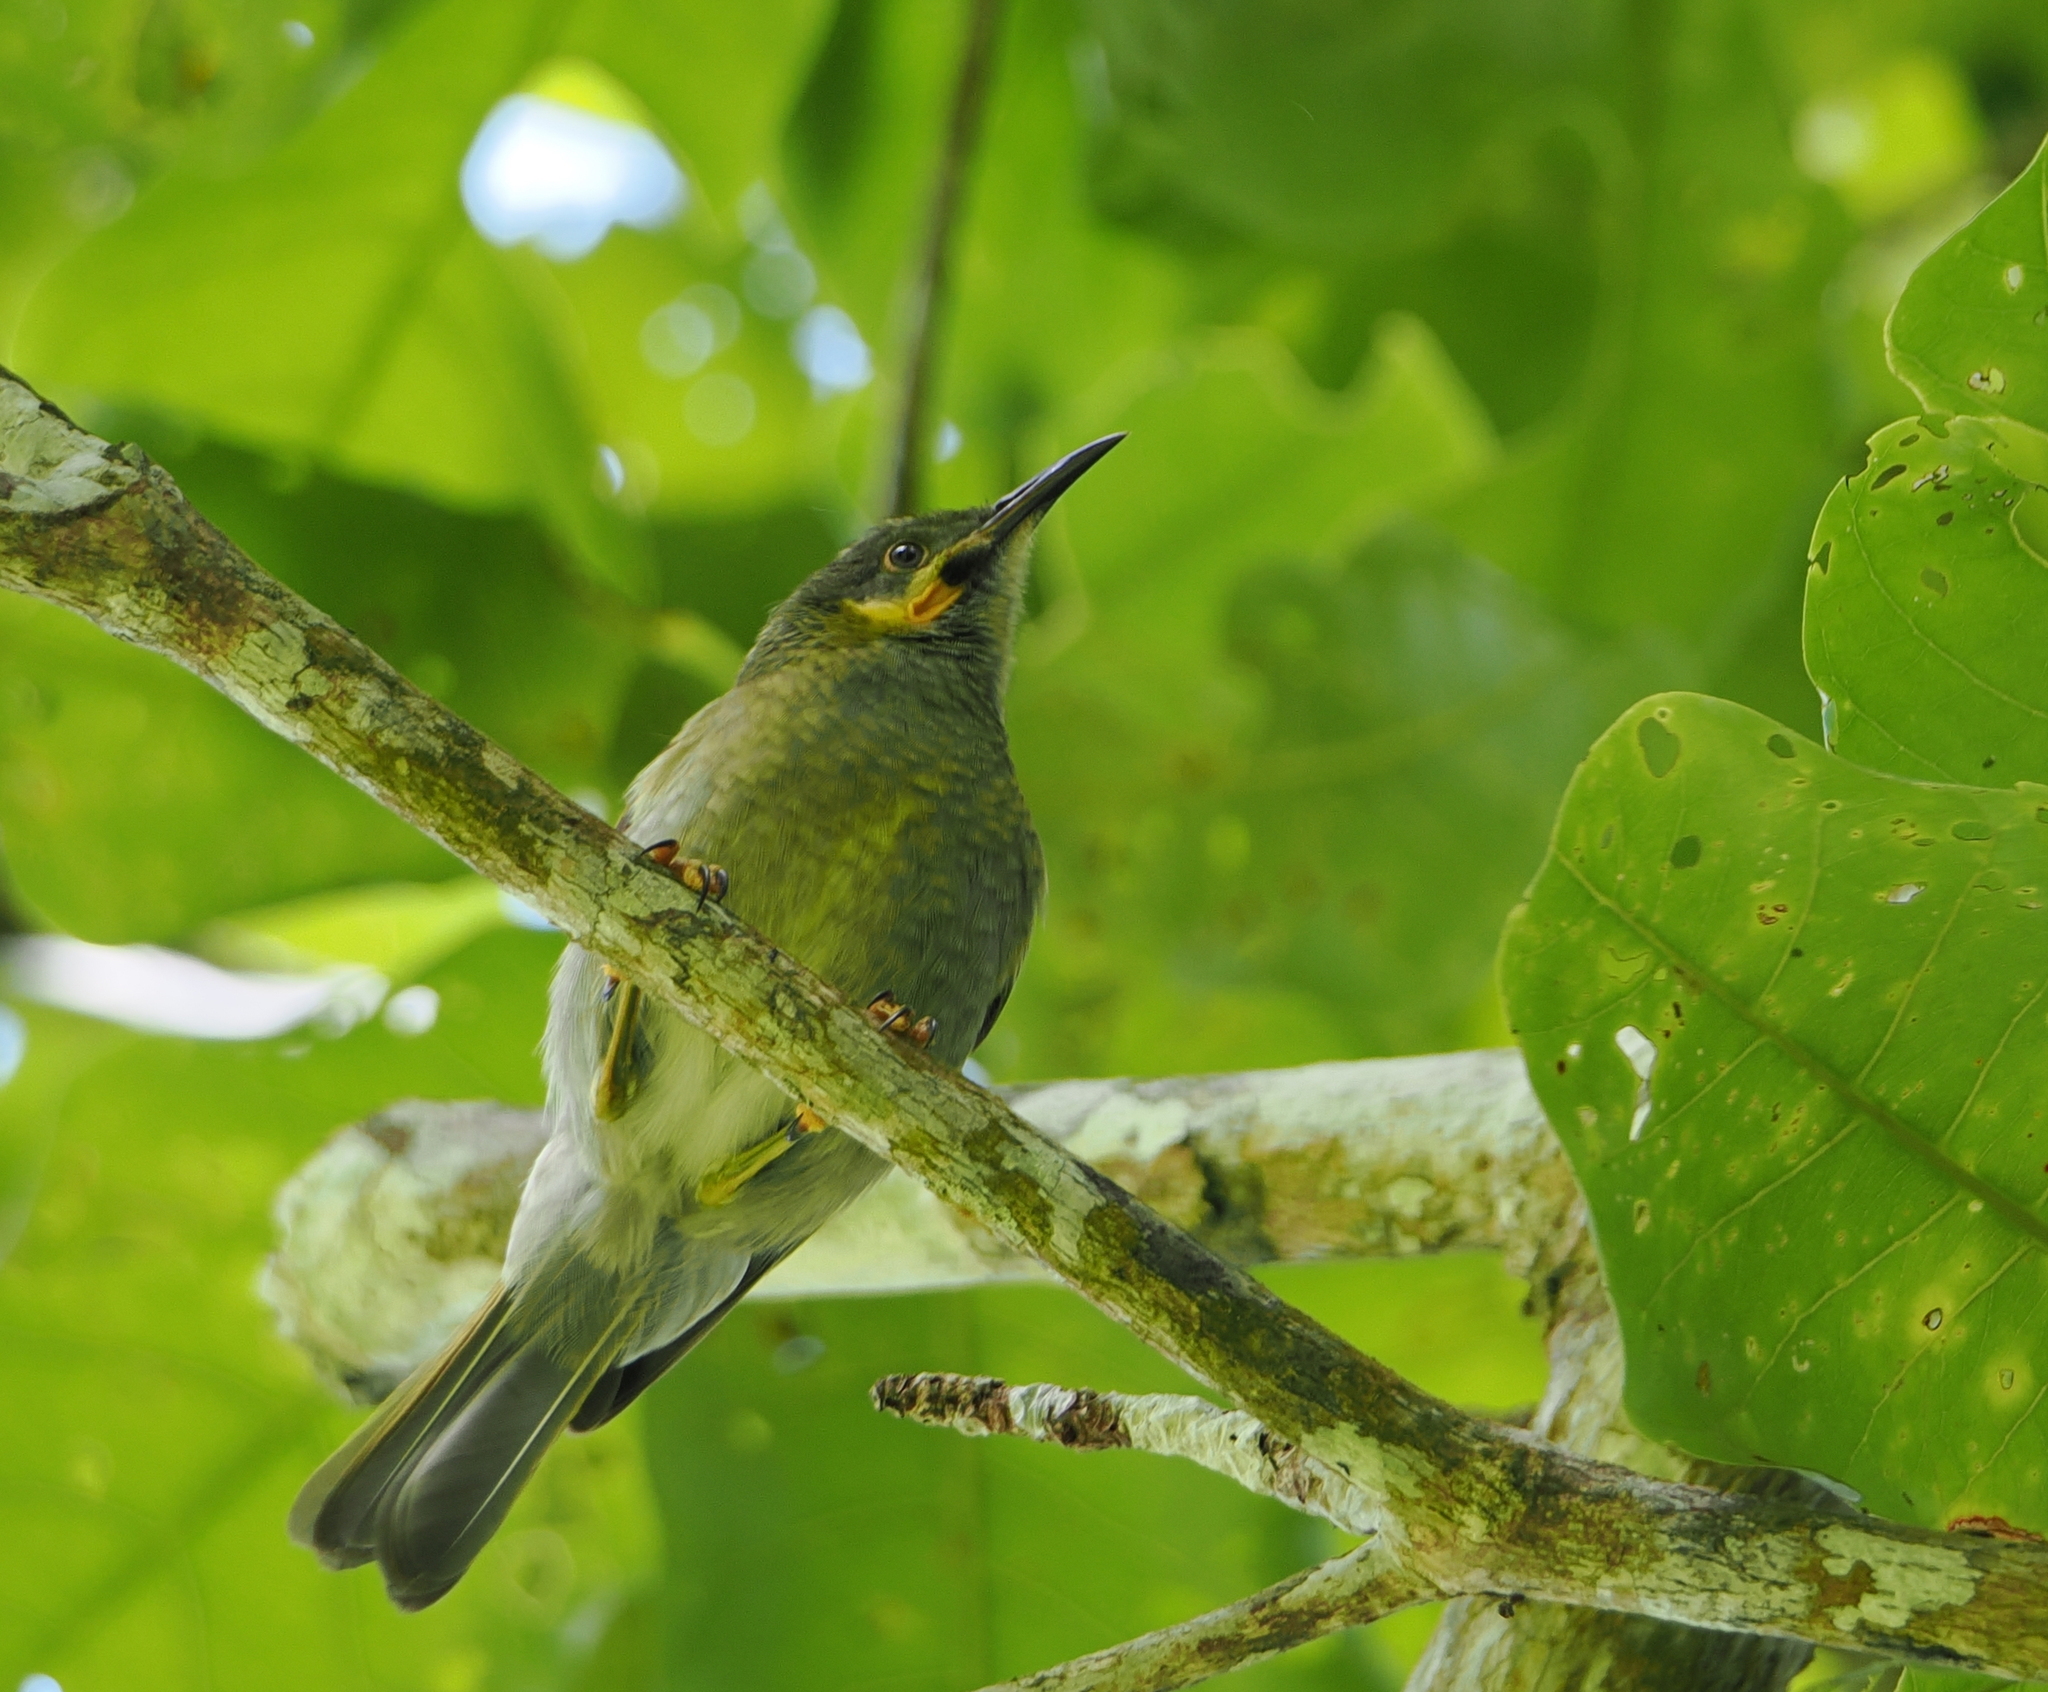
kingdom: Animalia
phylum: Chordata
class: Aves
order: Passeriformes
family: Meliphagidae
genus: Foulehaio
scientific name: Foulehaio carunculatus
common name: Eastern wattled-honeyeater
